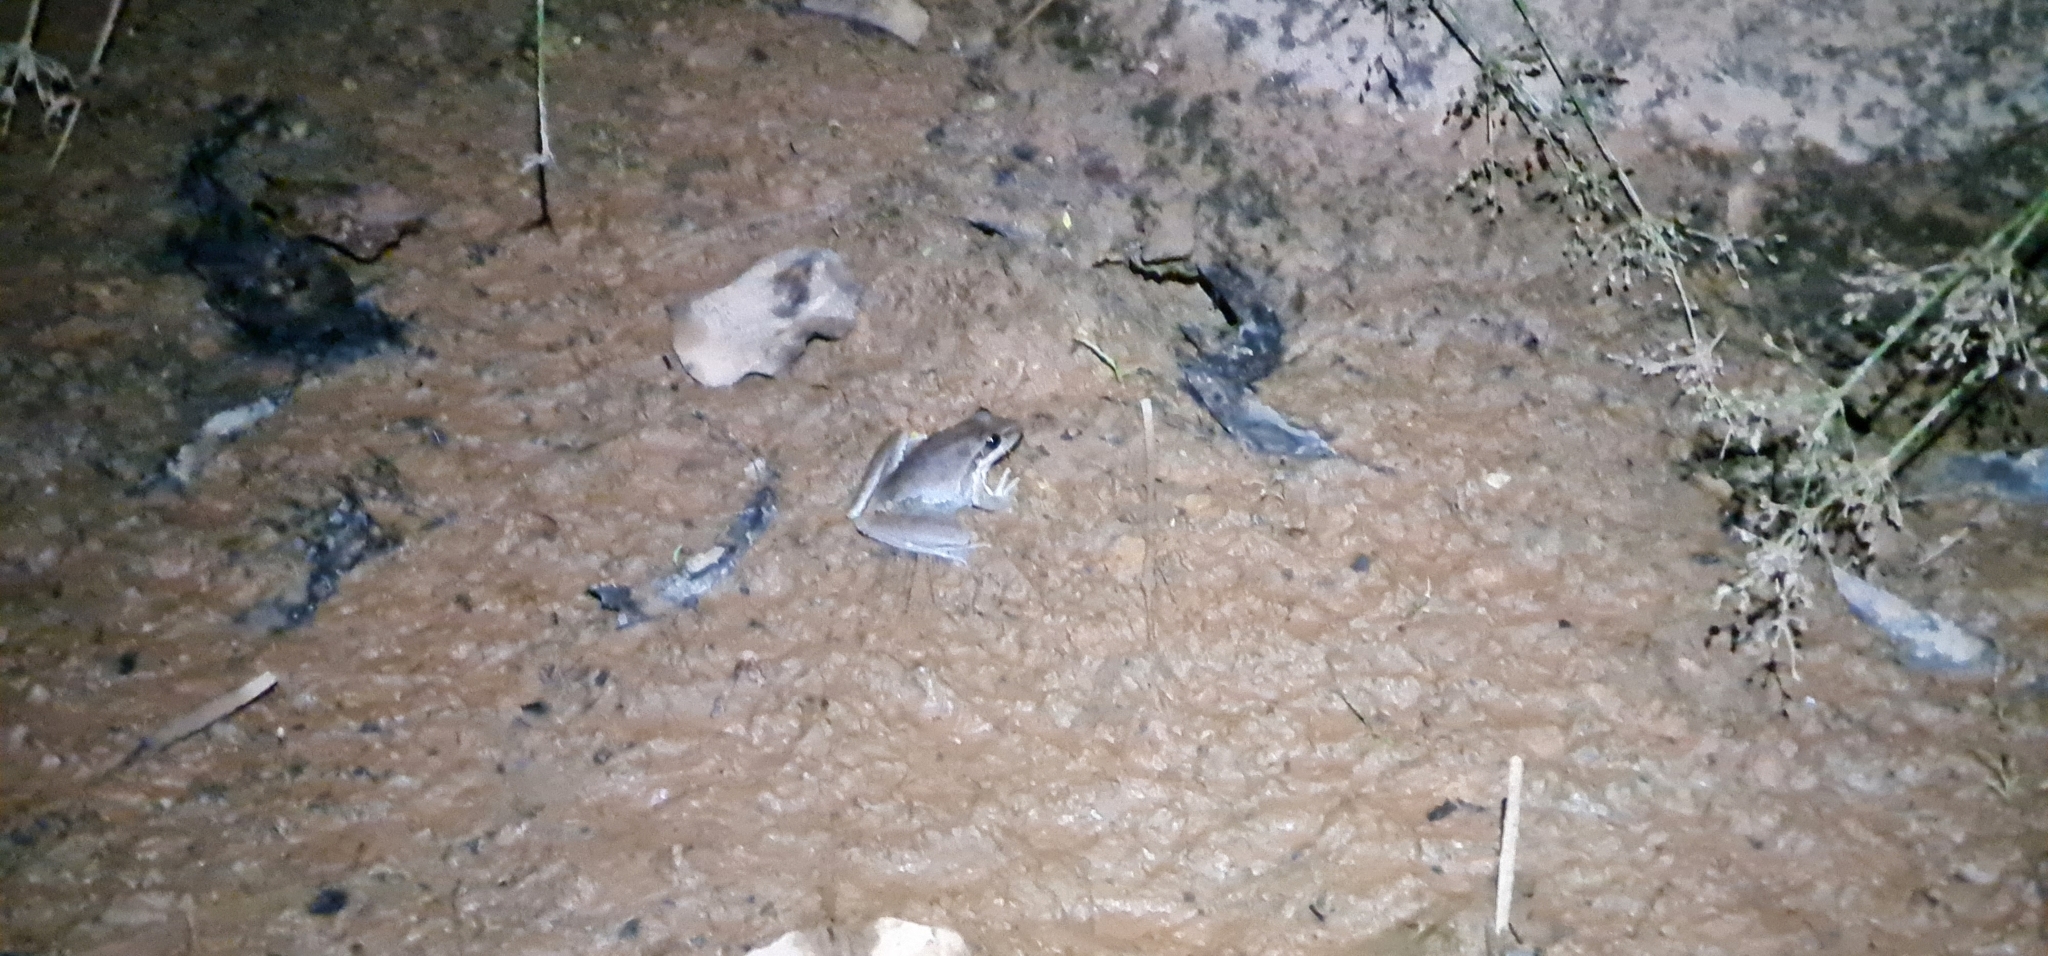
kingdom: Animalia
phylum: Chordata
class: Amphibia
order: Anura
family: Pelodryadidae
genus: Litoria
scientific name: Litoria watjulumensis
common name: Wotjulum frog
